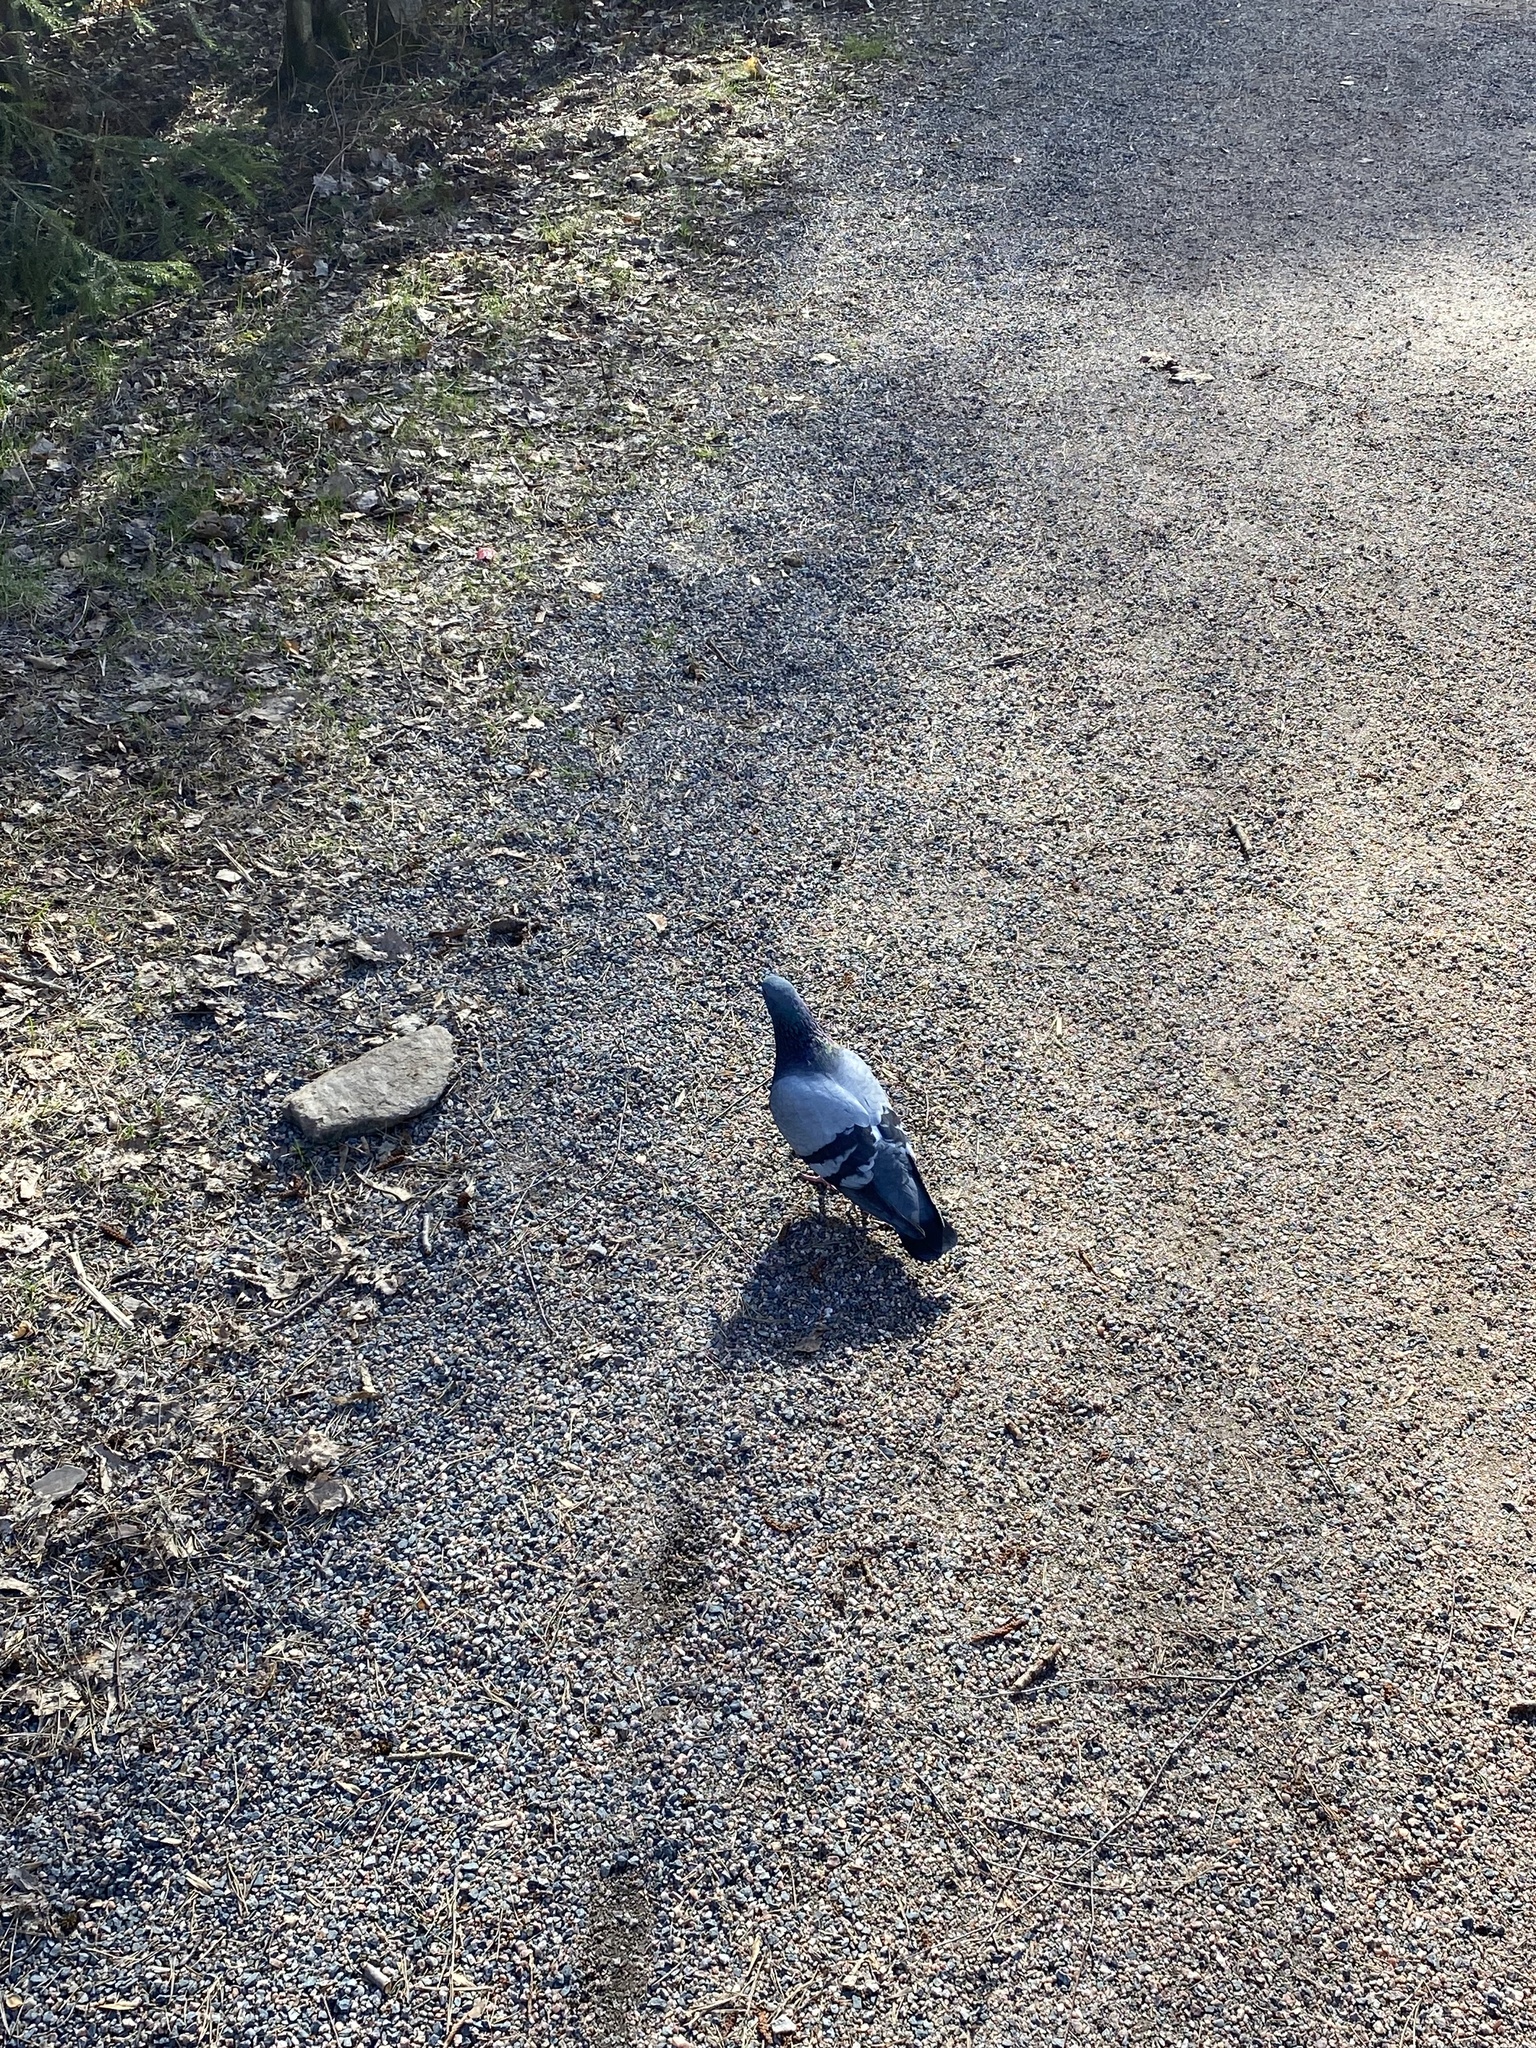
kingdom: Animalia
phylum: Chordata
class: Aves
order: Columbiformes
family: Columbidae
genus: Columba
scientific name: Columba livia
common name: Rock pigeon
